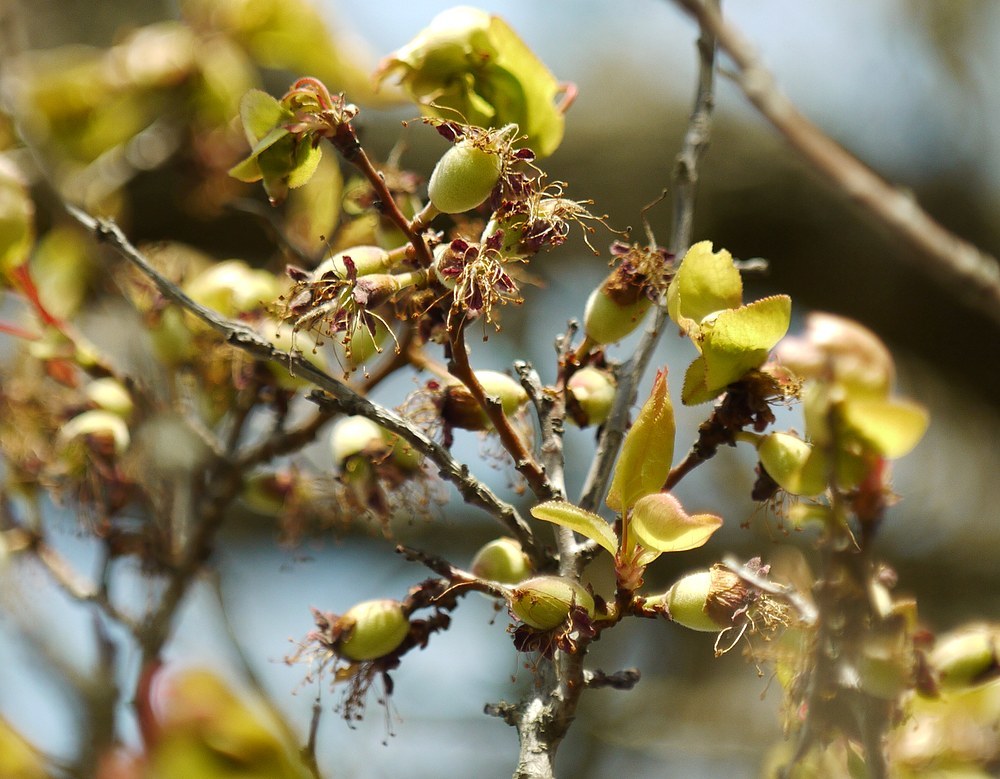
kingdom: Plantae
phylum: Tracheophyta
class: Magnoliopsida
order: Rosales
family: Rosaceae
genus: Prunus
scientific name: Prunus armeniaca
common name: Apricot
